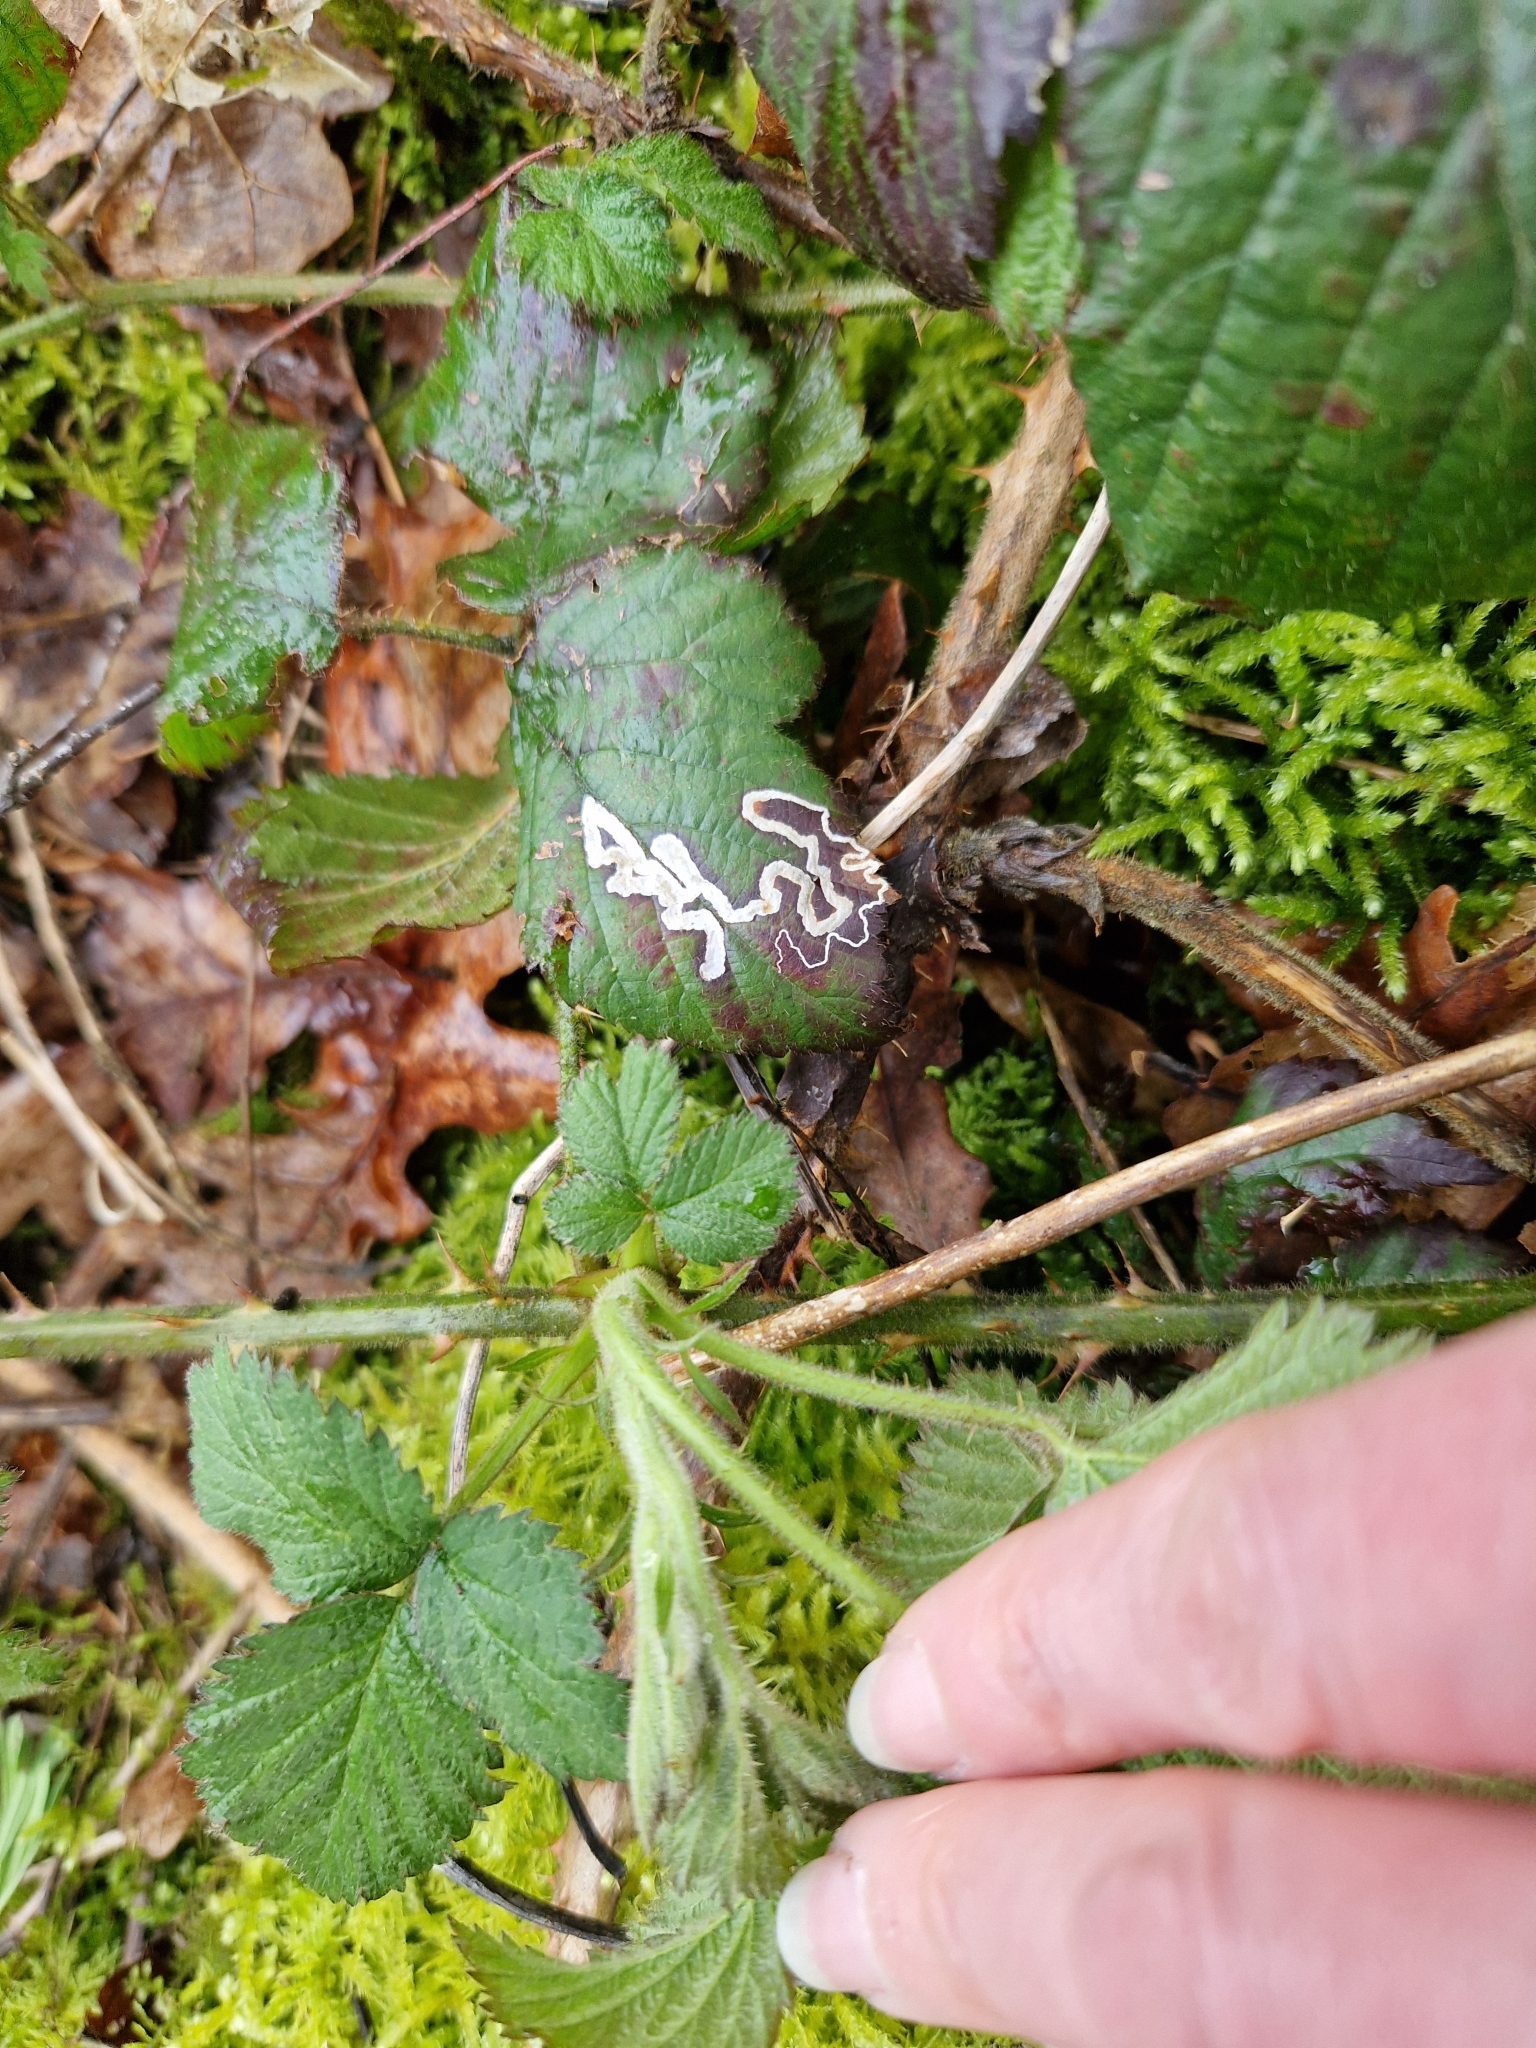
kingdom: Animalia
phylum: Arthropoda
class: Insecta
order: Lepidoptera
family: Nepticulidae
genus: Stigmella
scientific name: Stigmella aurella
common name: Golden pigmy
